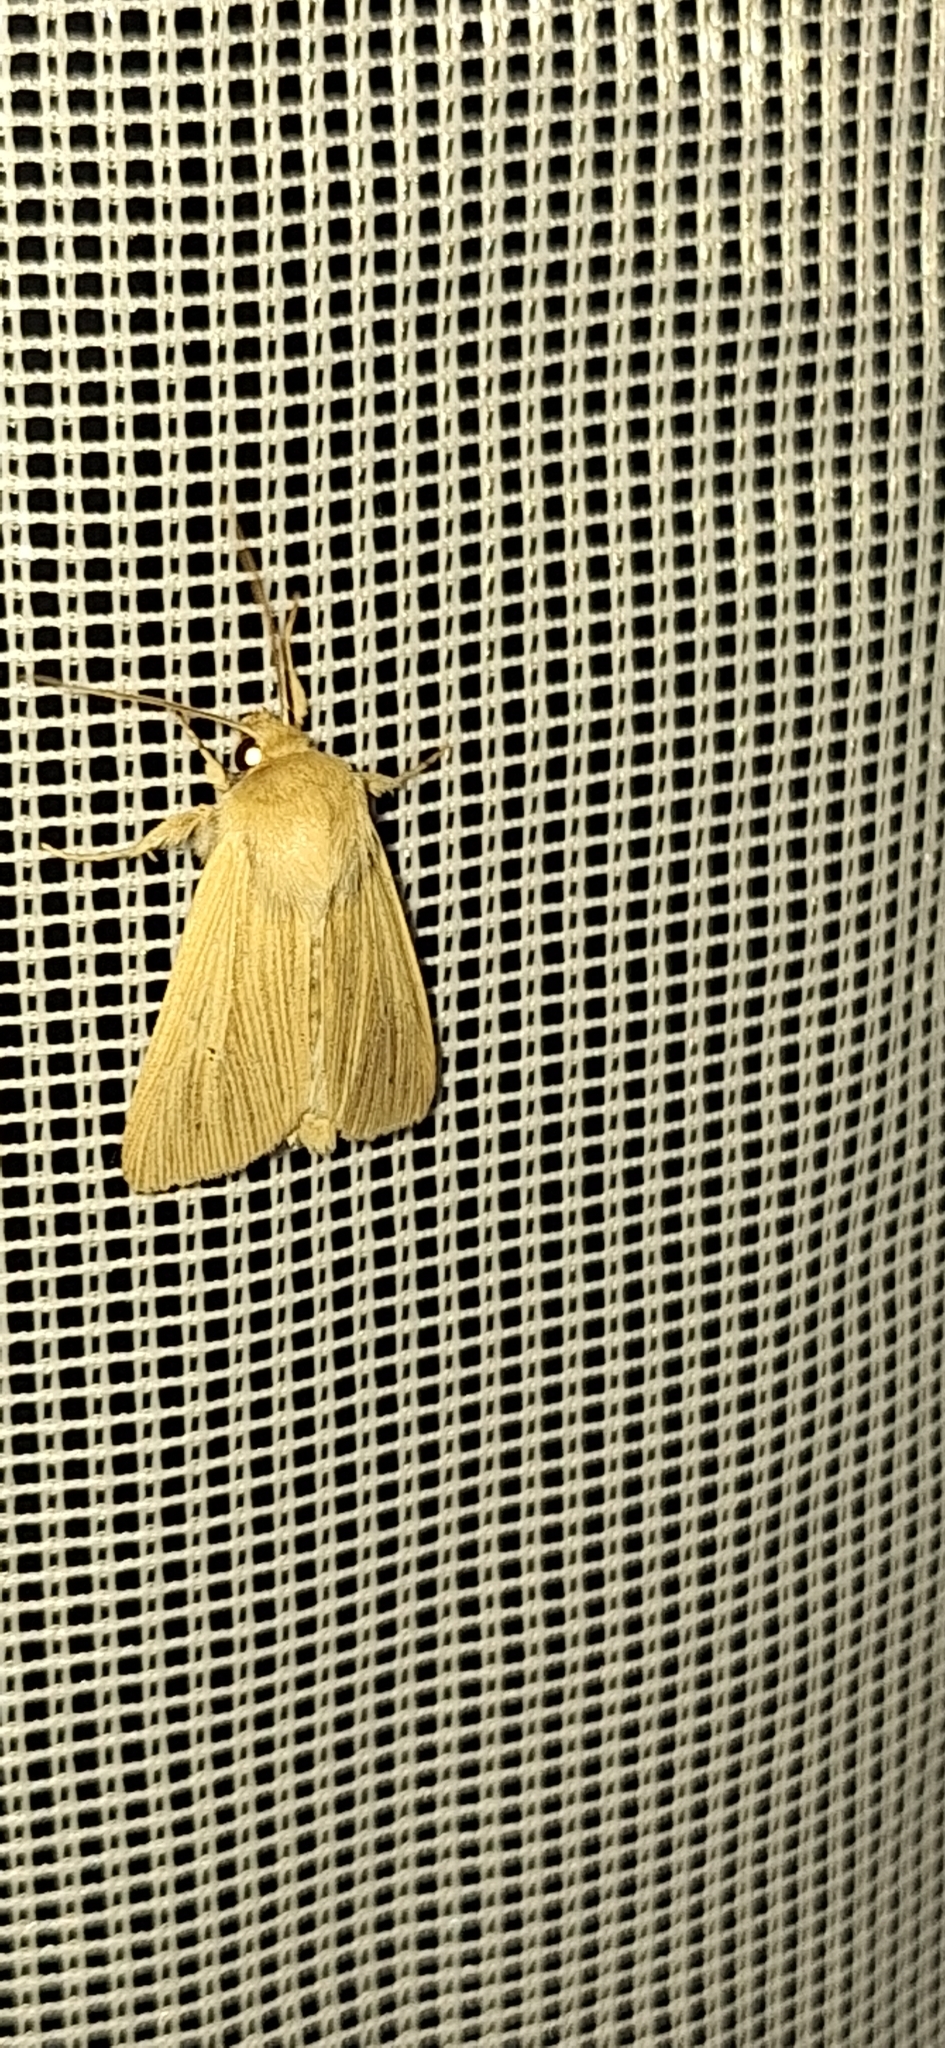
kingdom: Animalia
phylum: Arthropoda
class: Insecta
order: Lepidoptera
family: Noctuidae
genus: Mythimna
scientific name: Mythimna pallens
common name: Common wainscot
